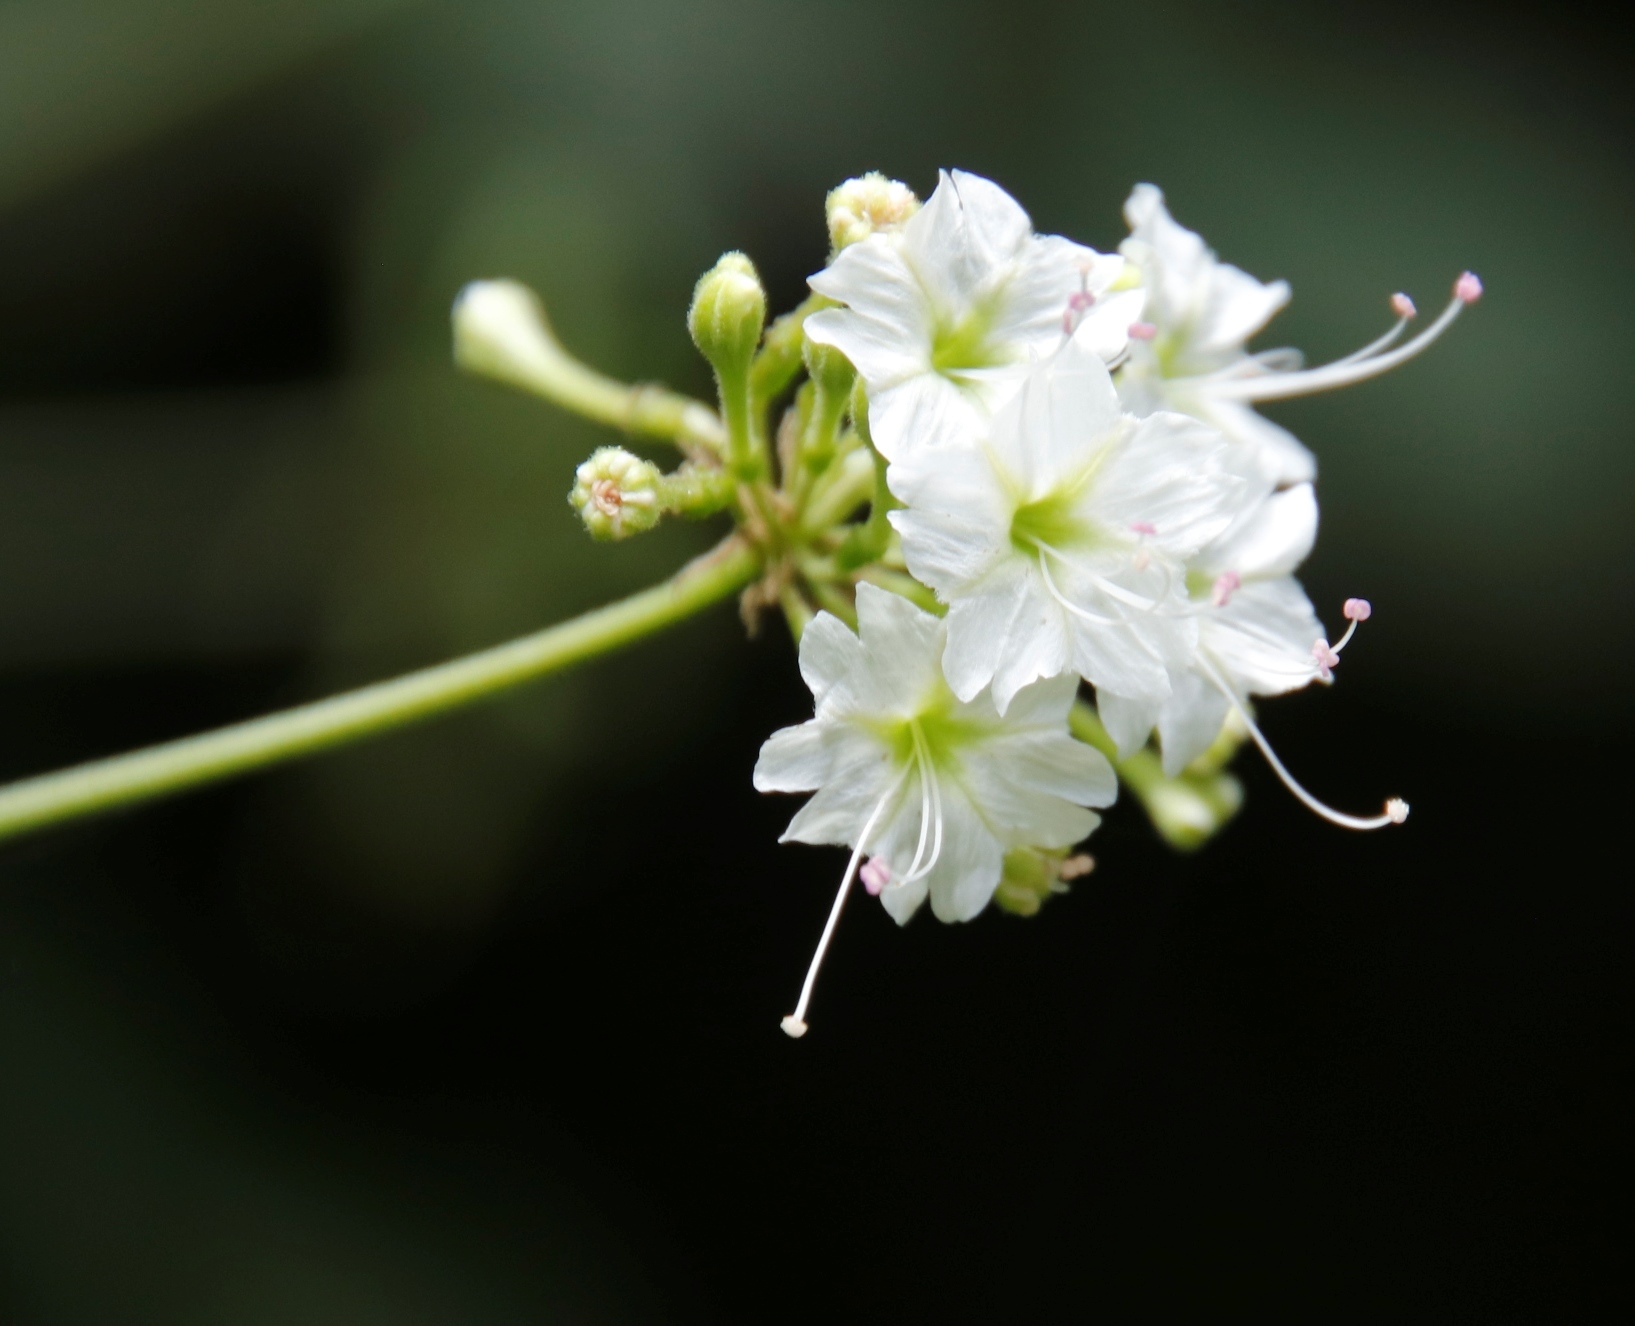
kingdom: Plantae
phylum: Tracheophyta
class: Magnoliopsida
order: Caryophyllales
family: Nyctaginaceae
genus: Commicarpus
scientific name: Commicarpus plumbagineus
